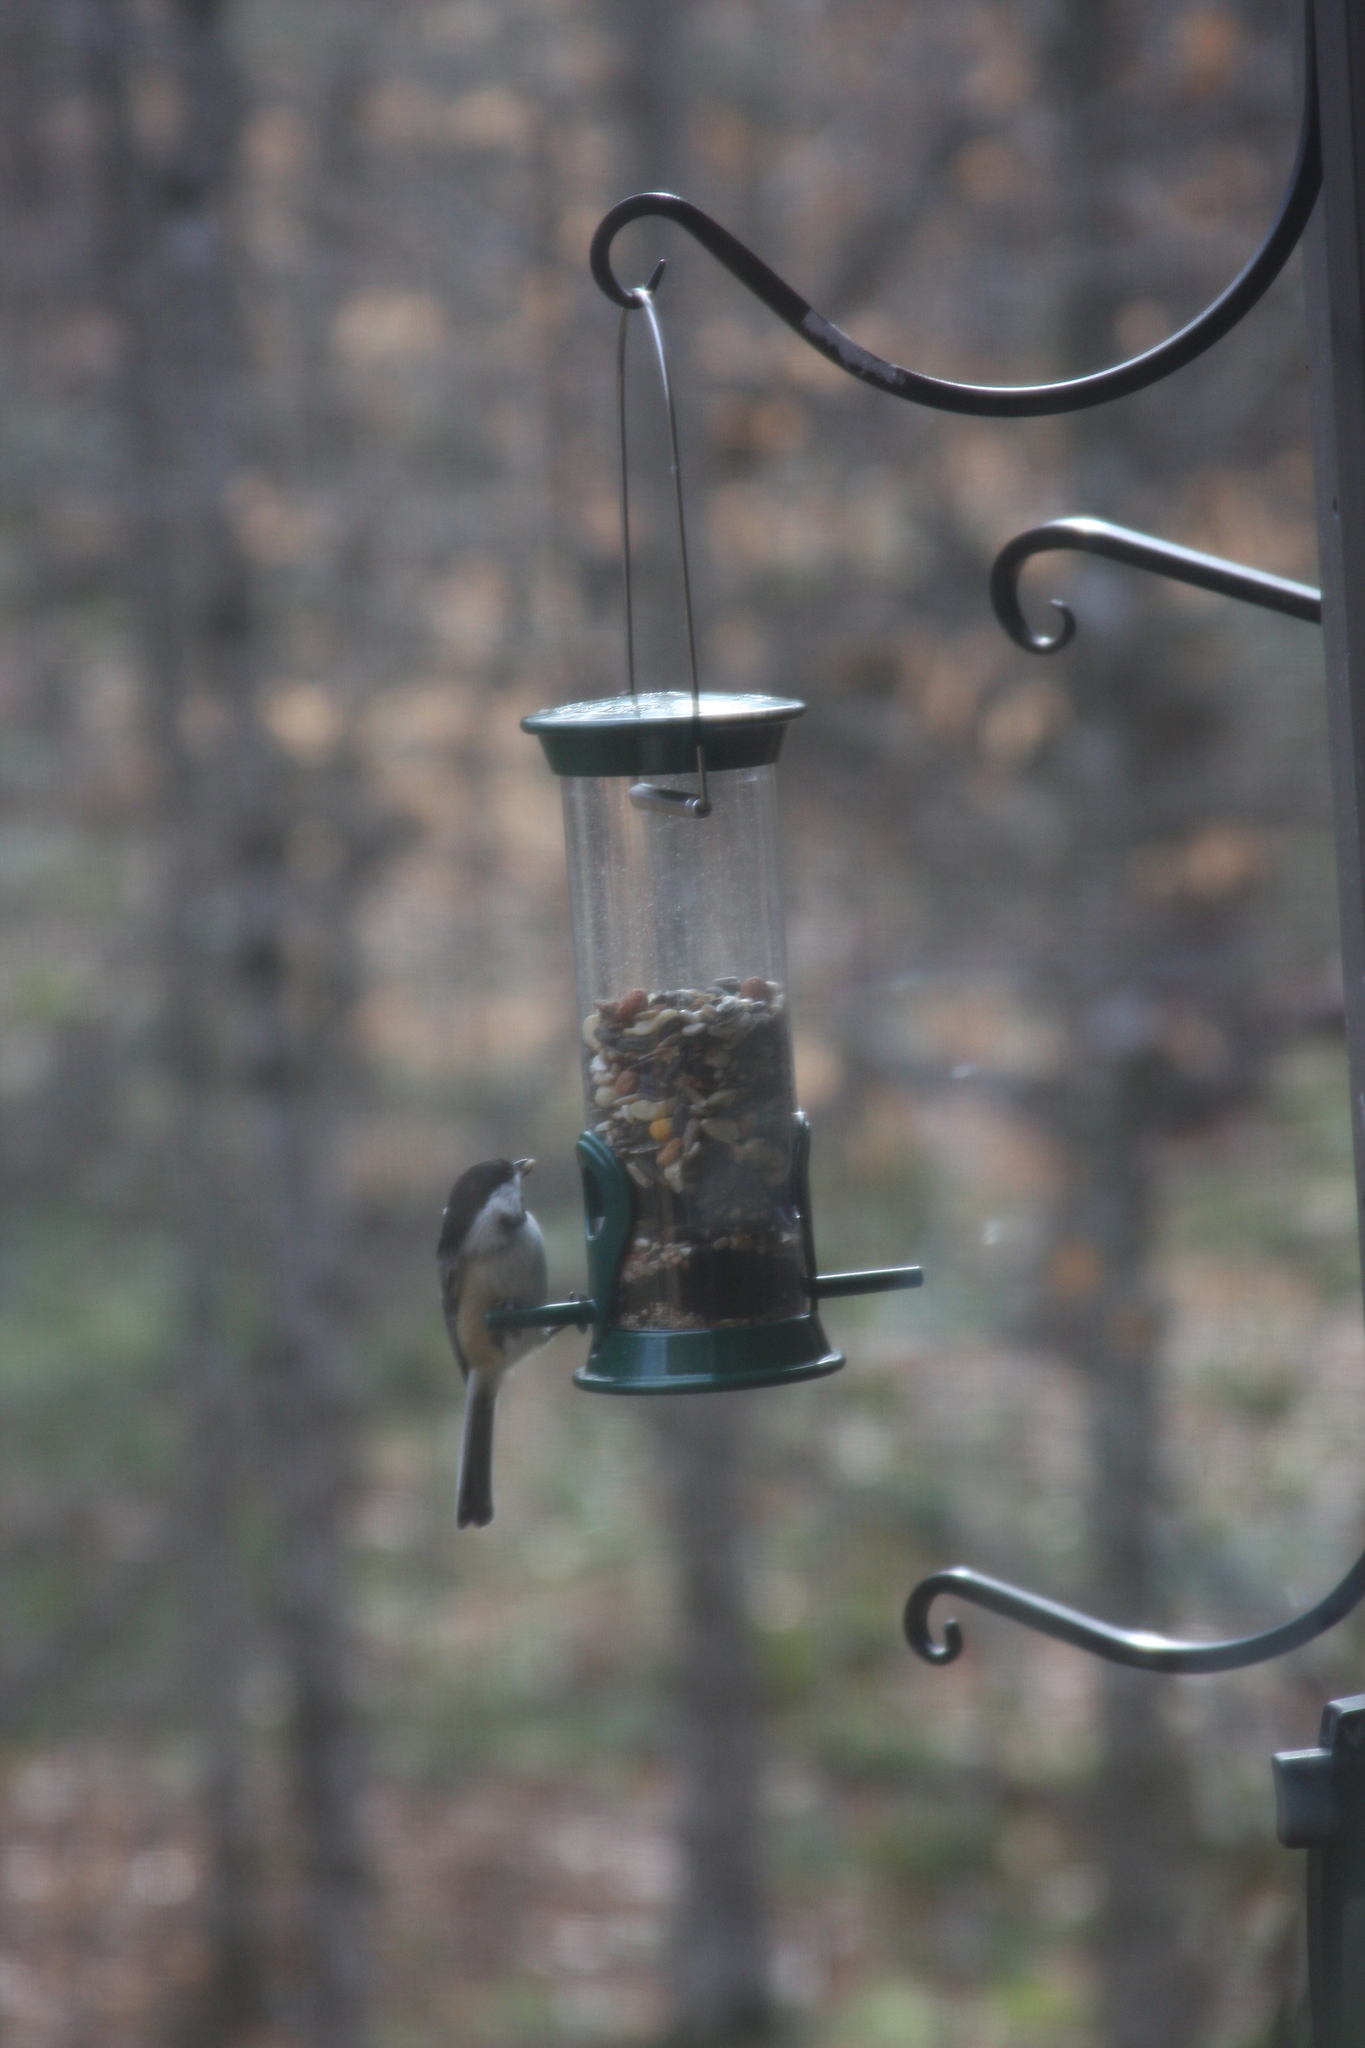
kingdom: Animalia
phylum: Chordata
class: Aves
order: Passeriformes
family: Paridae
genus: Poecile
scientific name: Poecile atricapillus
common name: Black-capped chickadee
